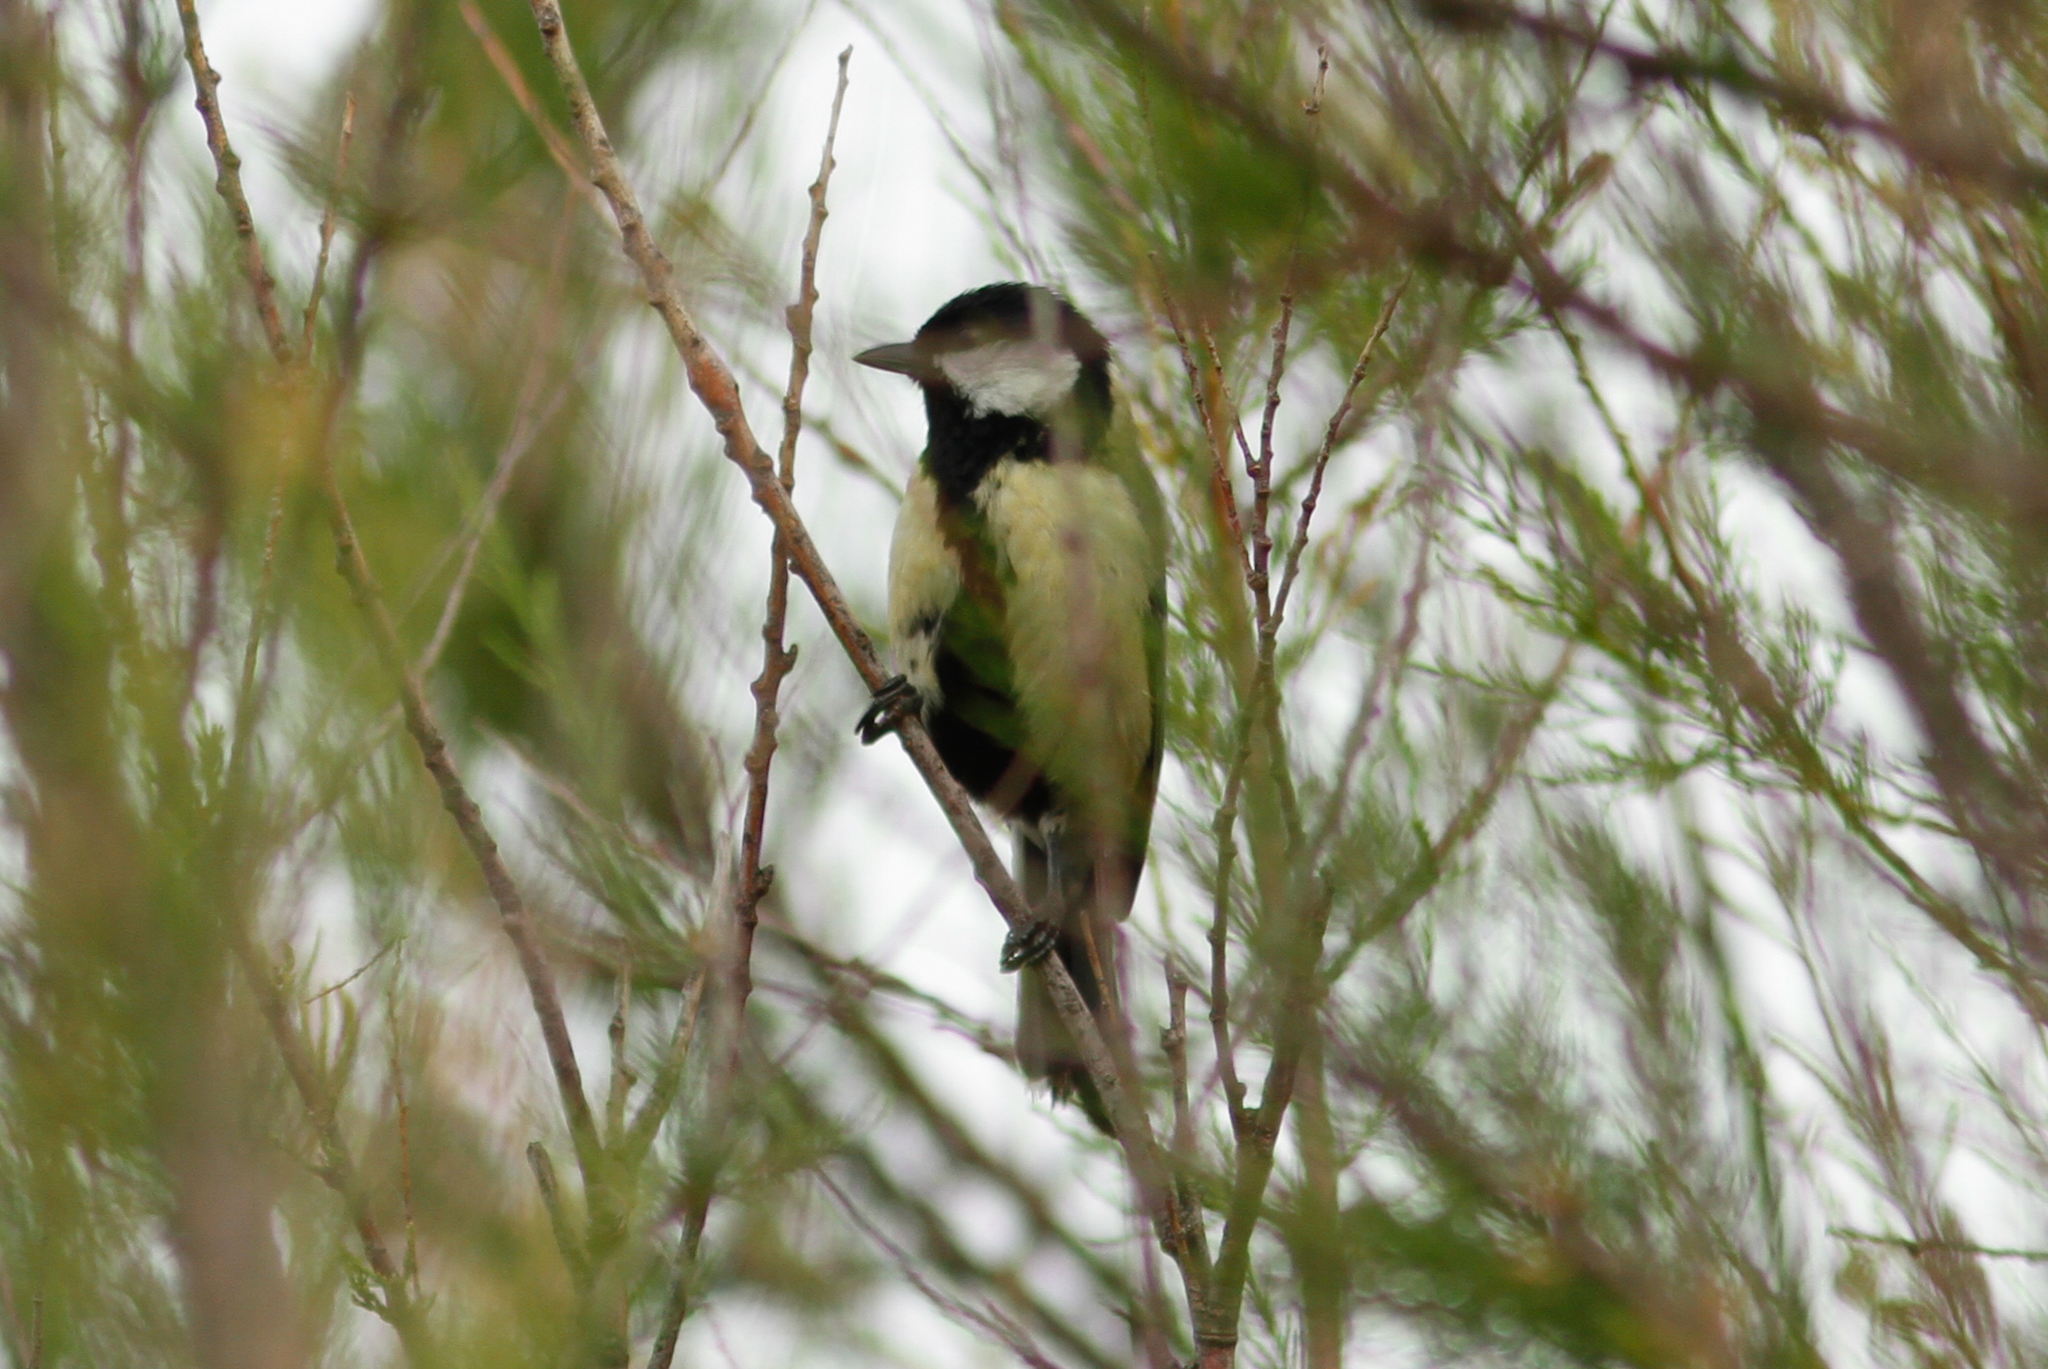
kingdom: Animalia
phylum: Chordata
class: Aves
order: Passeriformes
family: Paridae
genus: Parus
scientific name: Parus major
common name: Great tit
